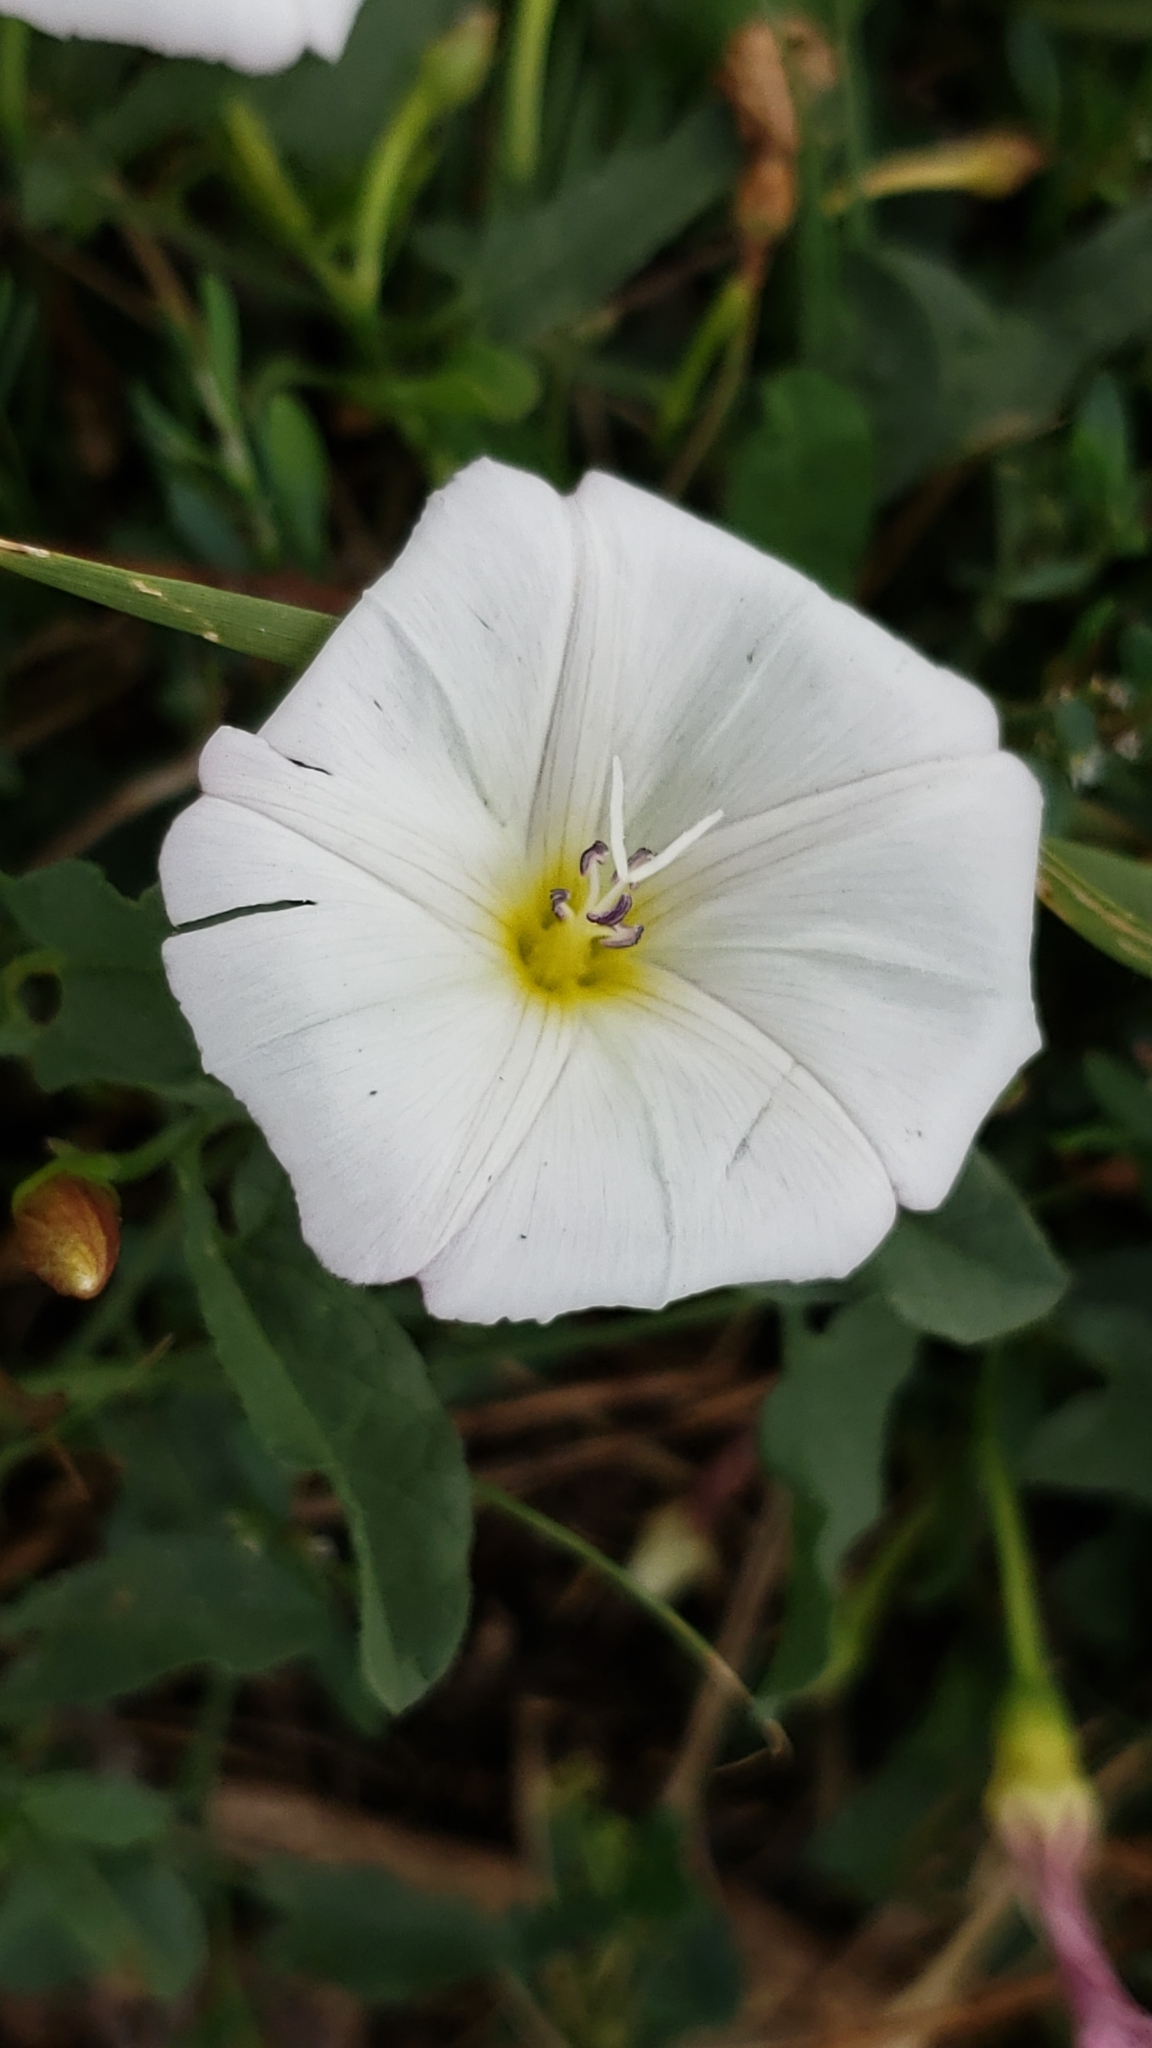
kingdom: Plantae
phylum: Tracheophyta
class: Magnoliopsida
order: Solanales
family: Convolvulaceae
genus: Convolvulus
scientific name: Convolvulus arvensis
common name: Field bindweed
